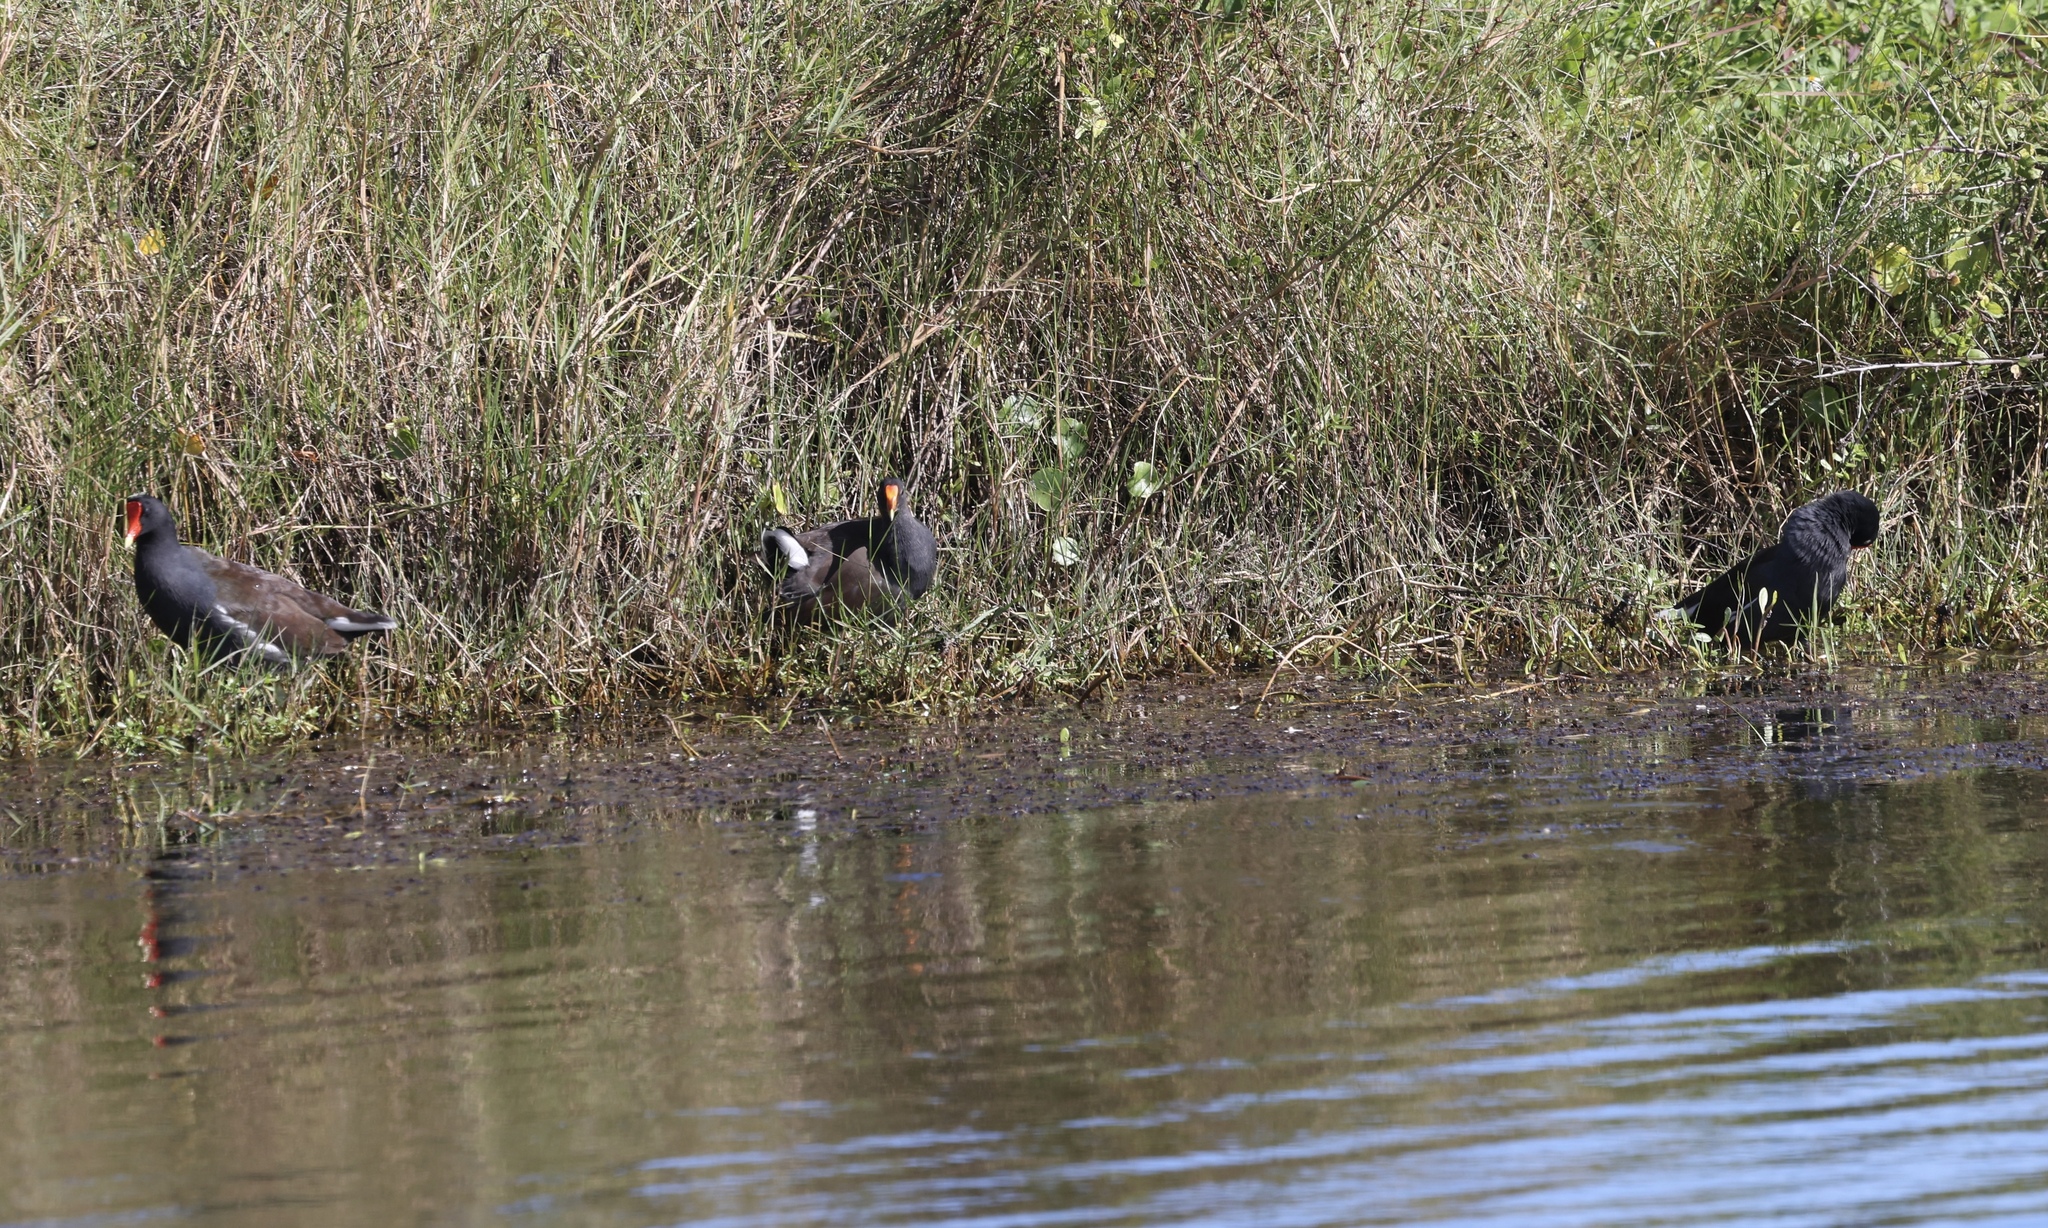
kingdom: Animalia
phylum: Chordata
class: Aves
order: Gruiformes
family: Rallidae
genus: Gallinula
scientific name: Gallinula chloropus
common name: Common moorhen
